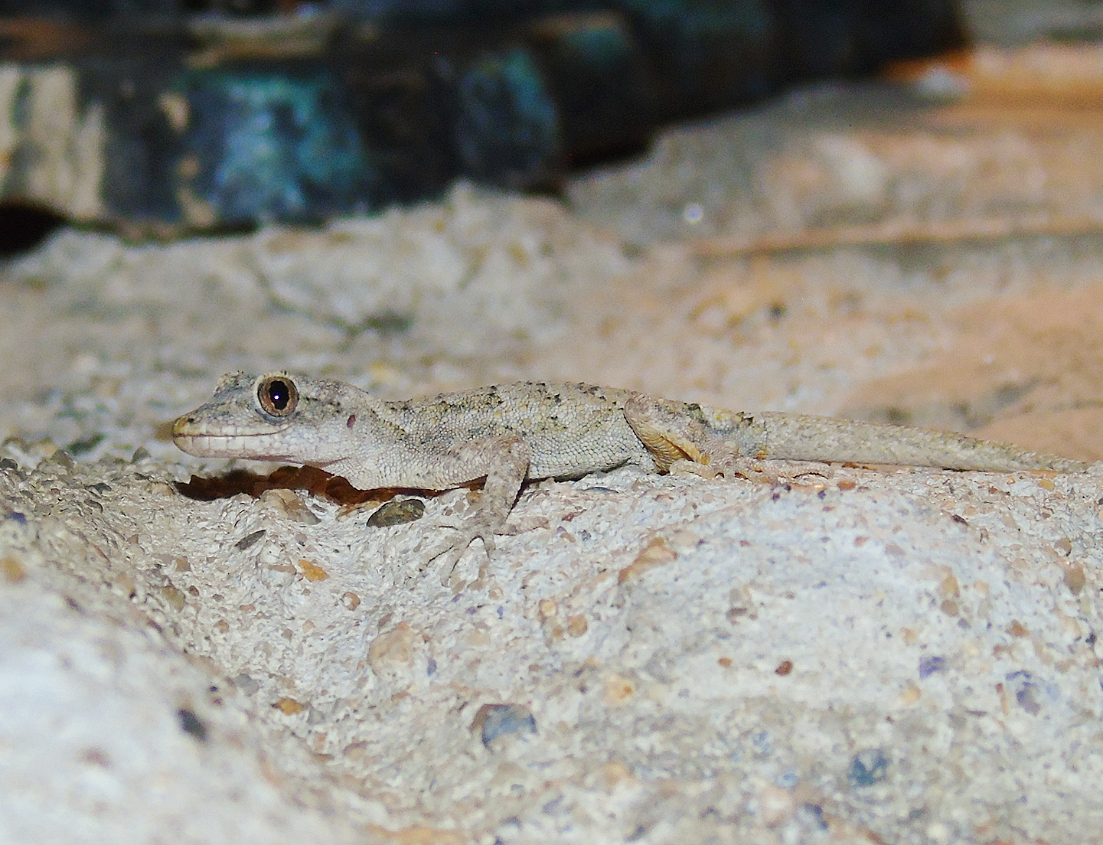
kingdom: Animalia
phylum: Chordata
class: Squamata
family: Gekkonidae
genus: Mediodactylus
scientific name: Mediodactylus danilewskii
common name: Bulgarian bent-toed gecko
